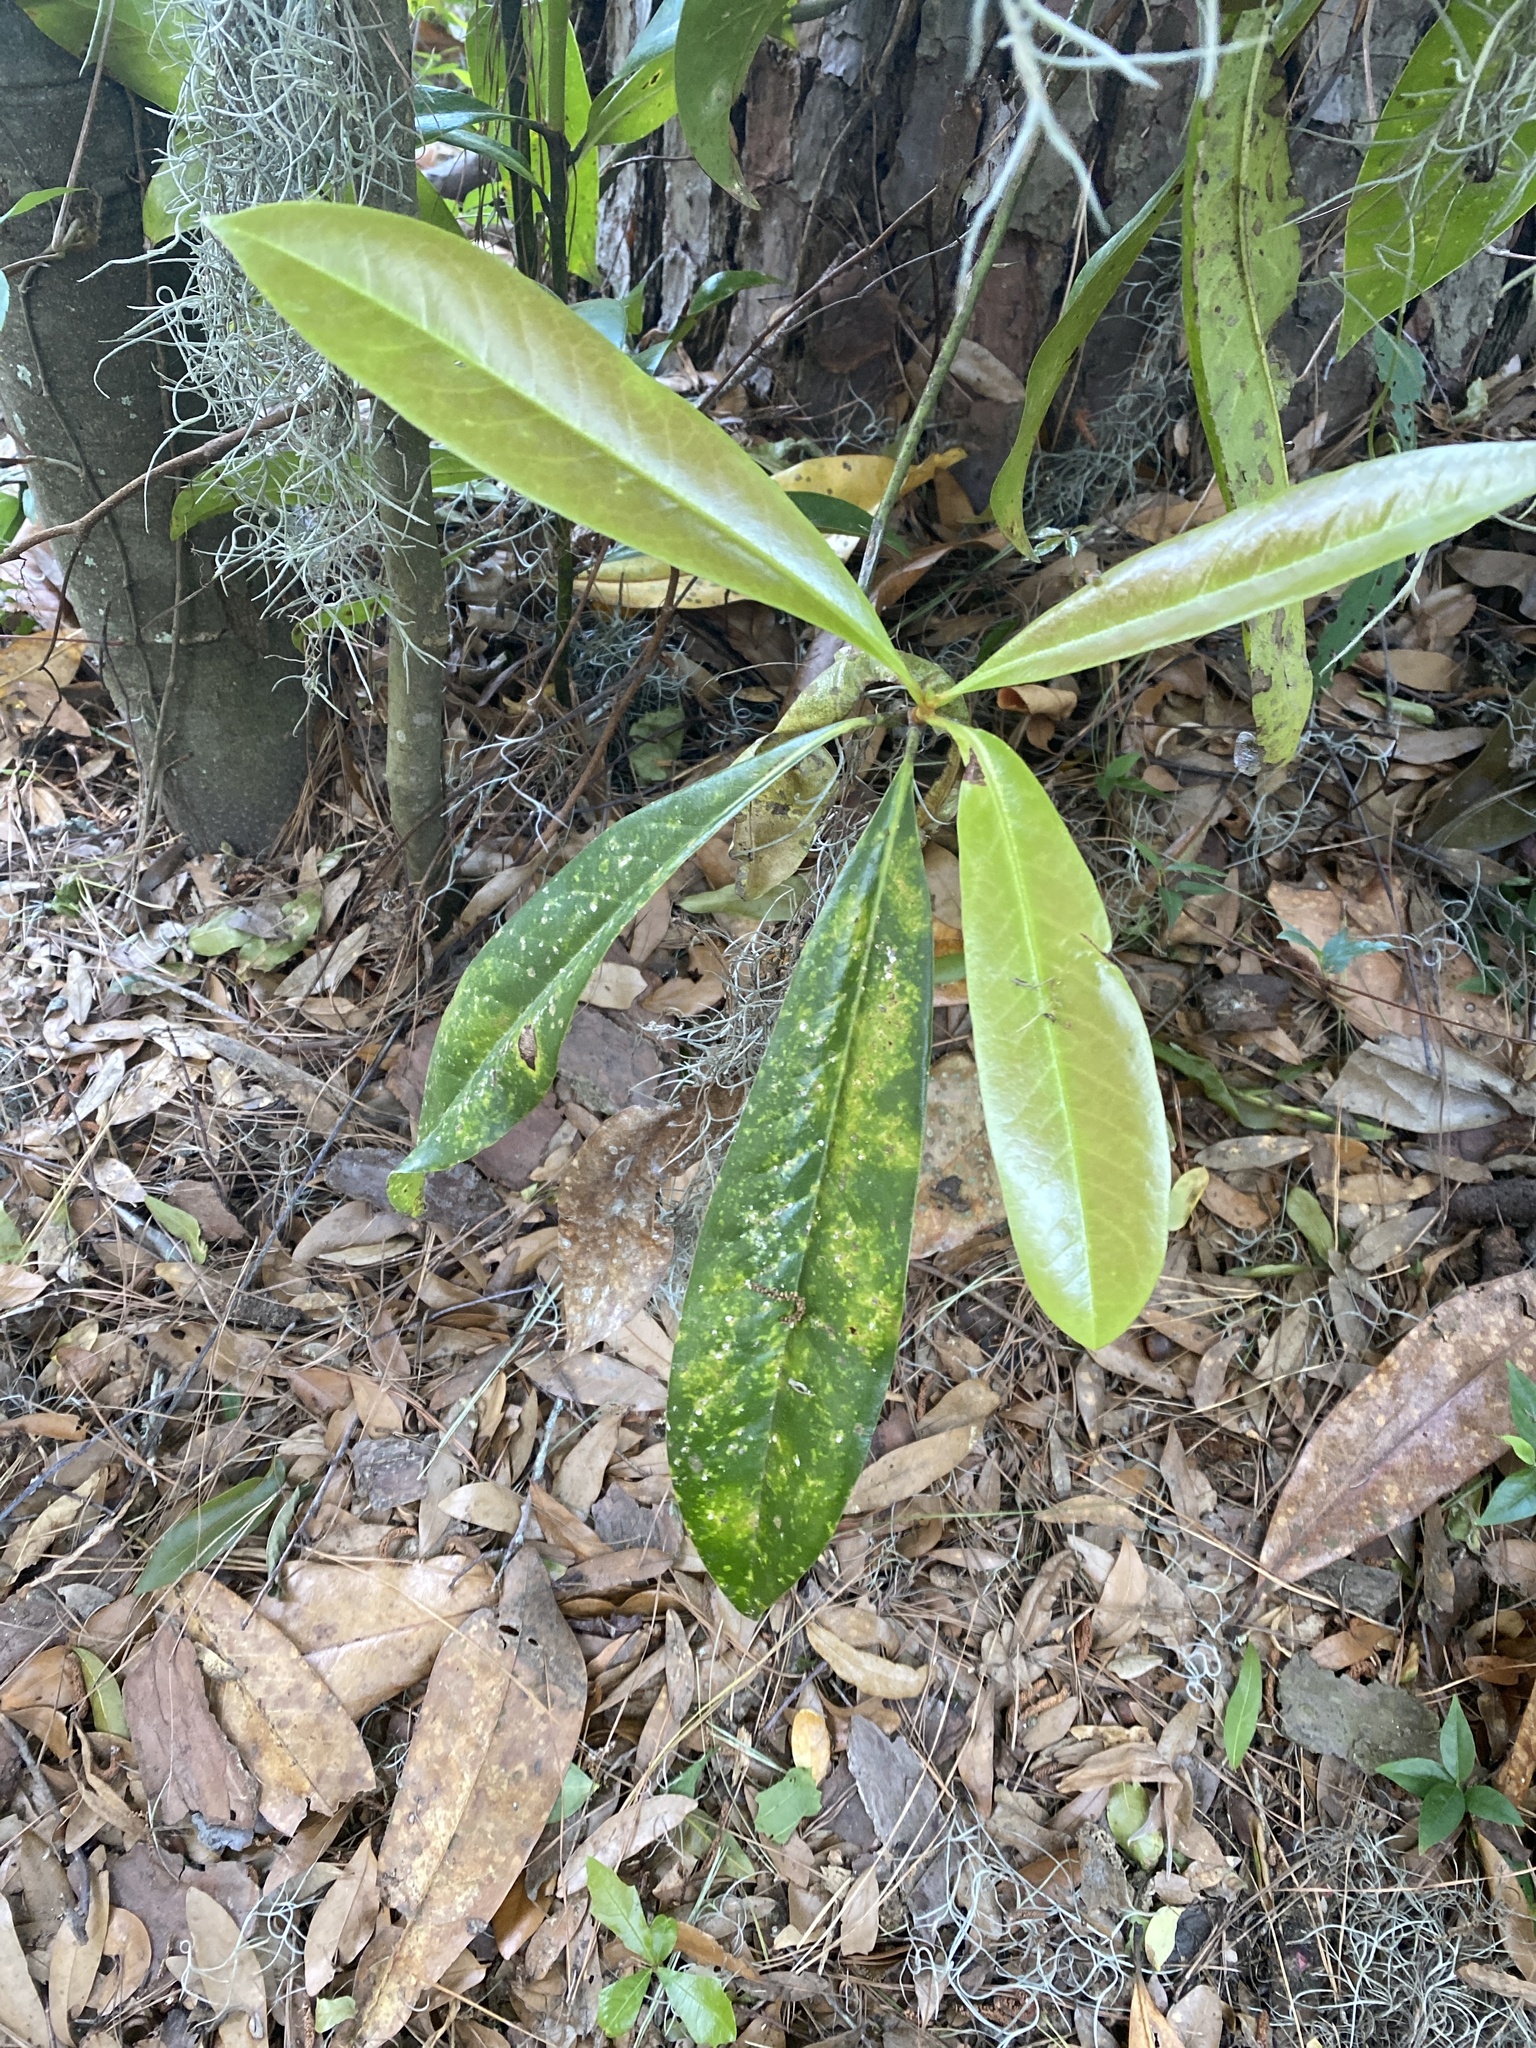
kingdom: Plantae
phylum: Tracheophyta
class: Magnoliopsida
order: Magnoliales
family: Magnoliaceae
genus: Magnolia
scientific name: Magnolia grandiflora
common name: Southern magnolia
